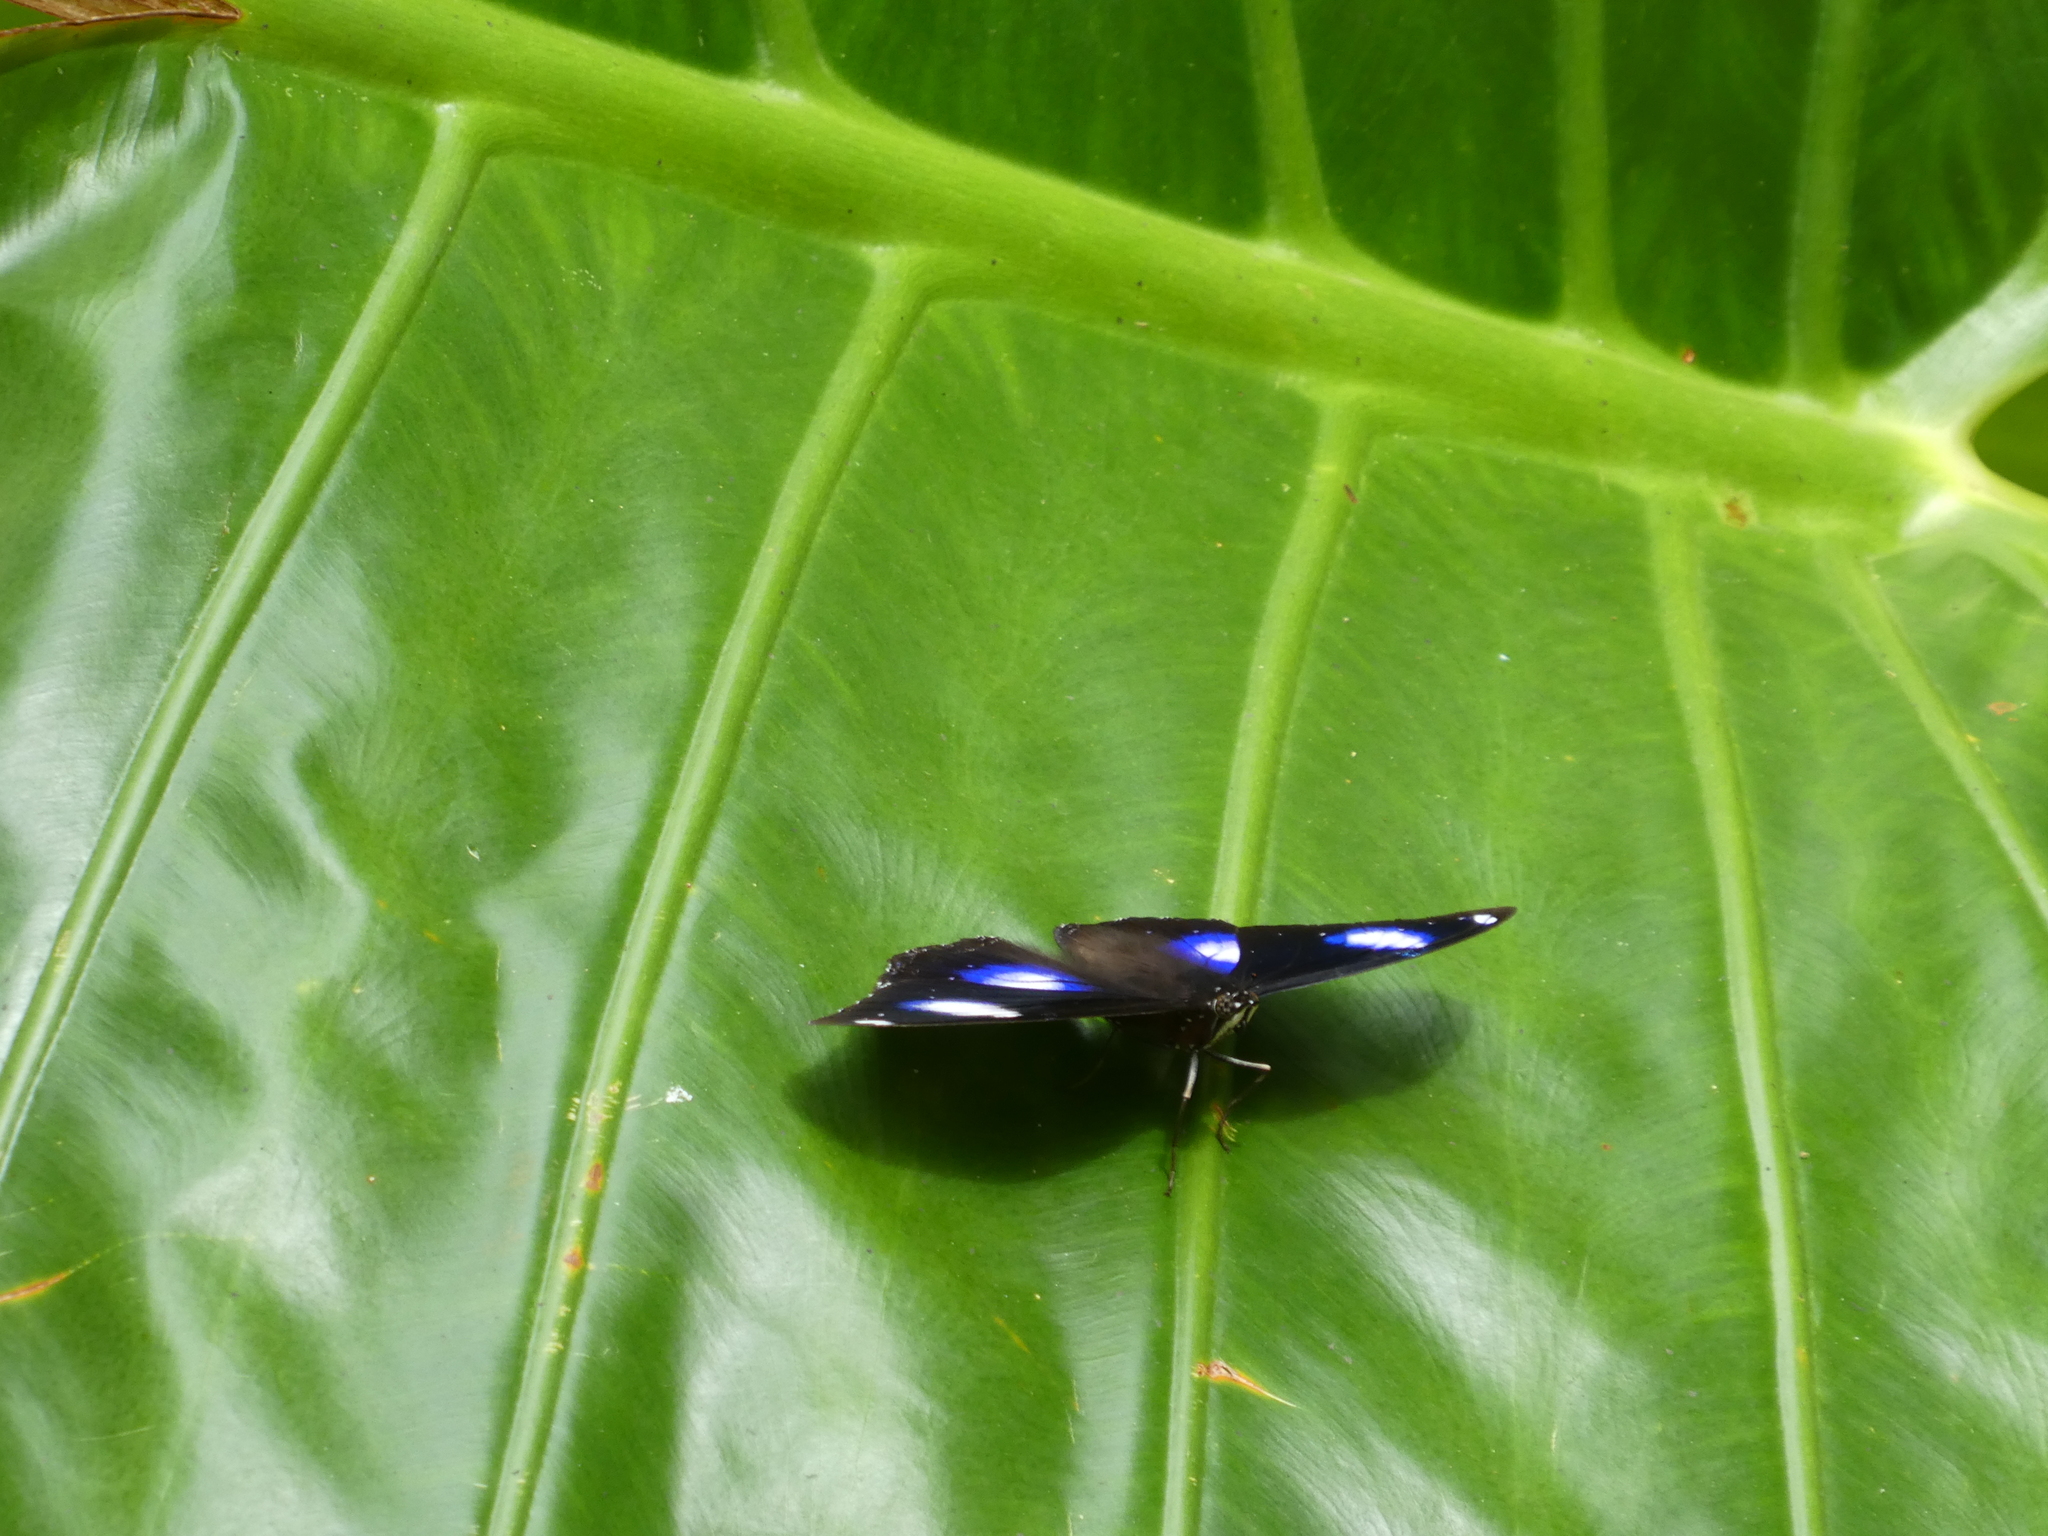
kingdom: Animalia
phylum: Arthropoda
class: Insecta
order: Lepidoptera
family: Nymphalidae
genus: Hypolimnas
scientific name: Hypolimnas bolina
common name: Great eggfly
